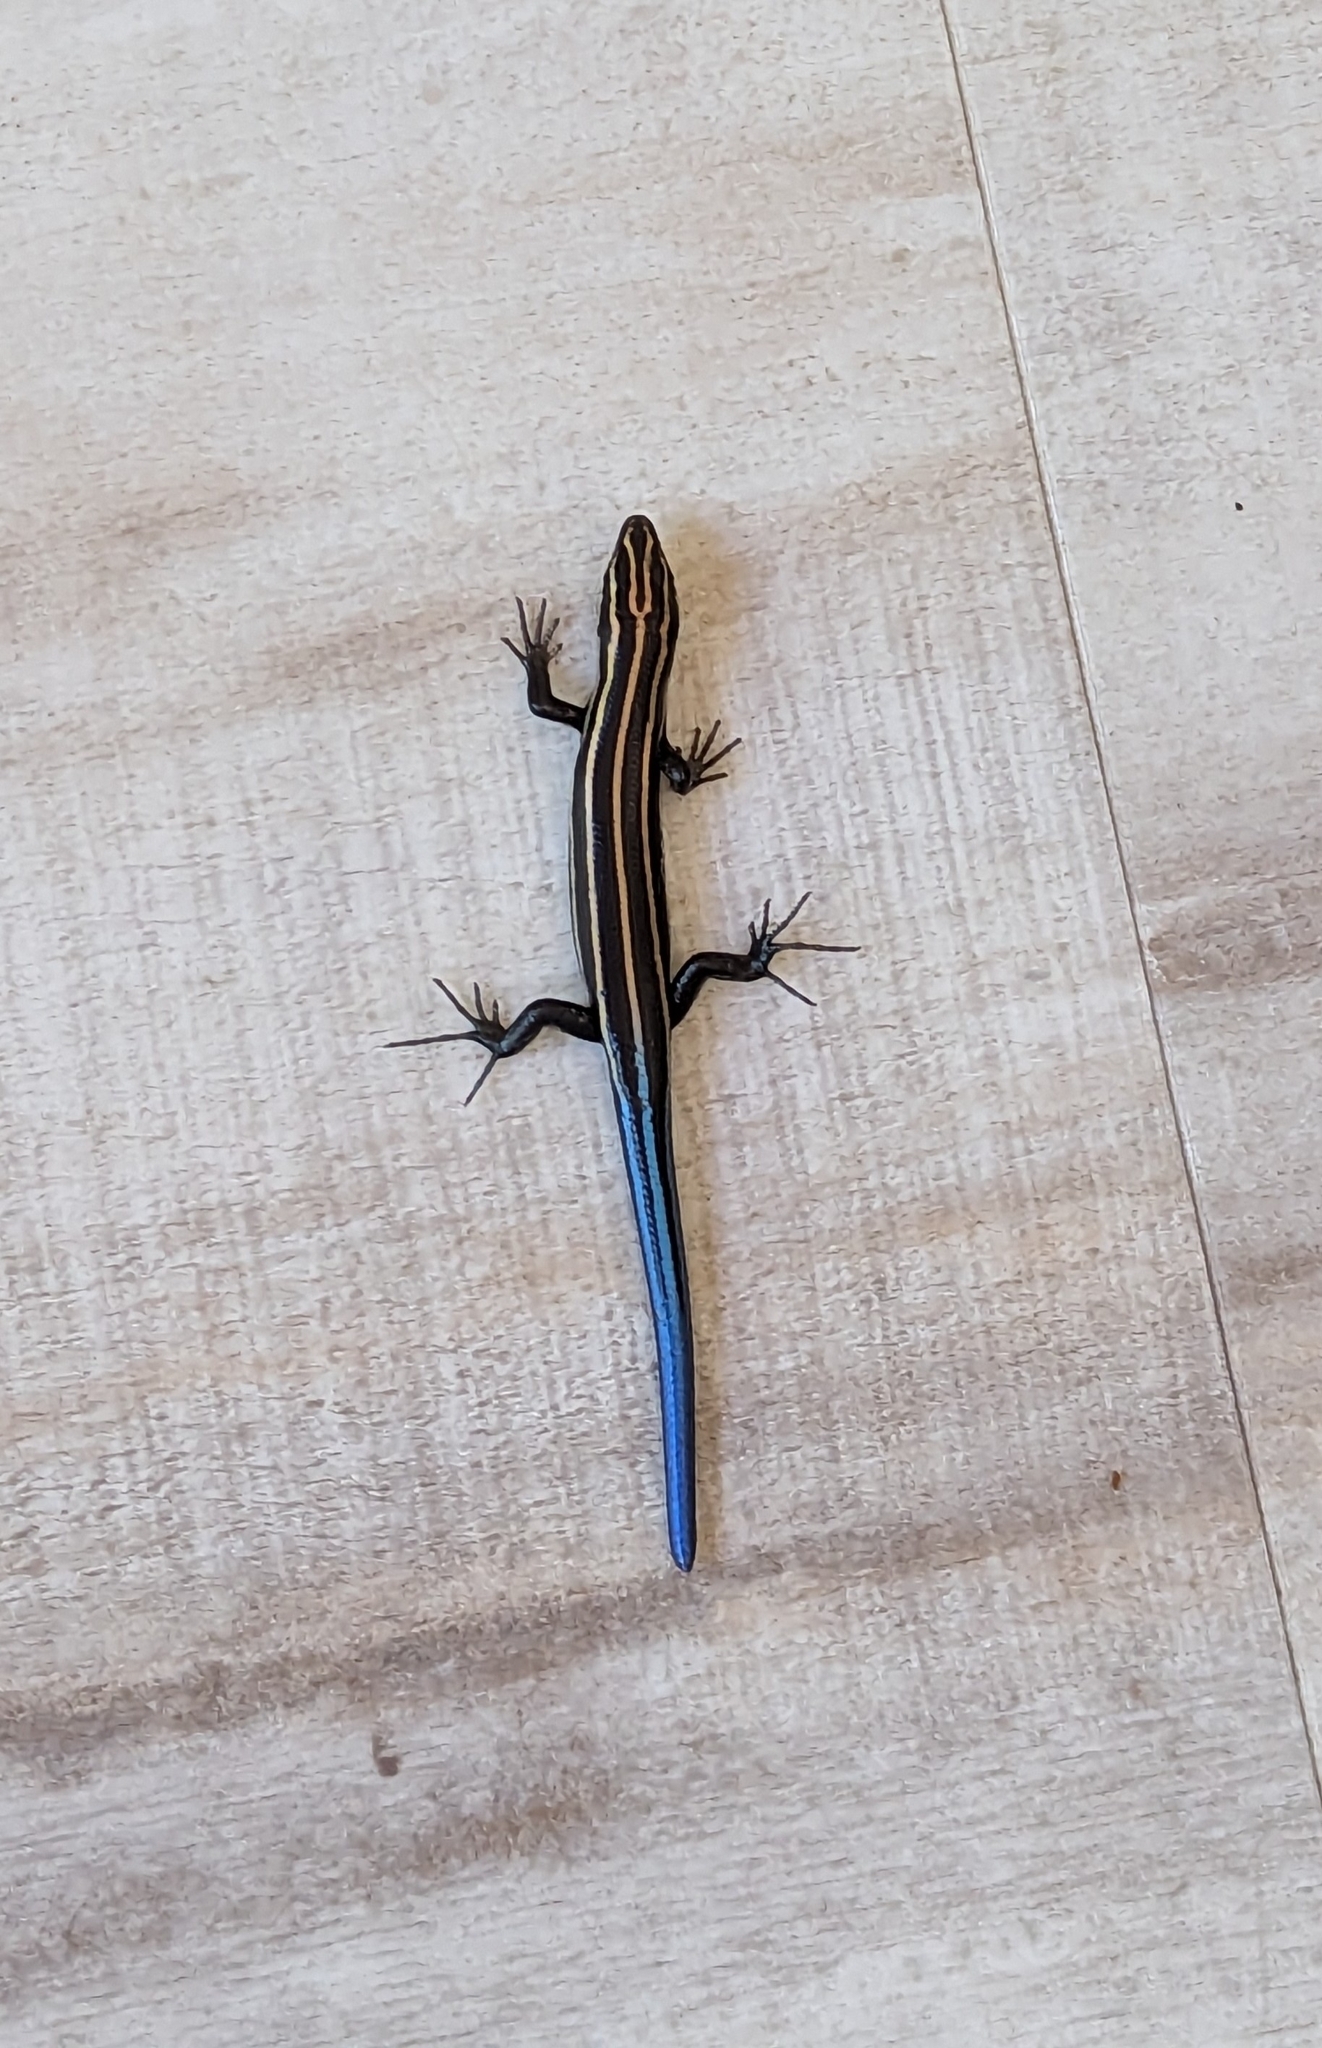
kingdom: Animalia
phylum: Chordata
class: Squamata
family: Scincidae
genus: Plestiodon
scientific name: Plestiodon fasciatus
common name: Five-lined skink
